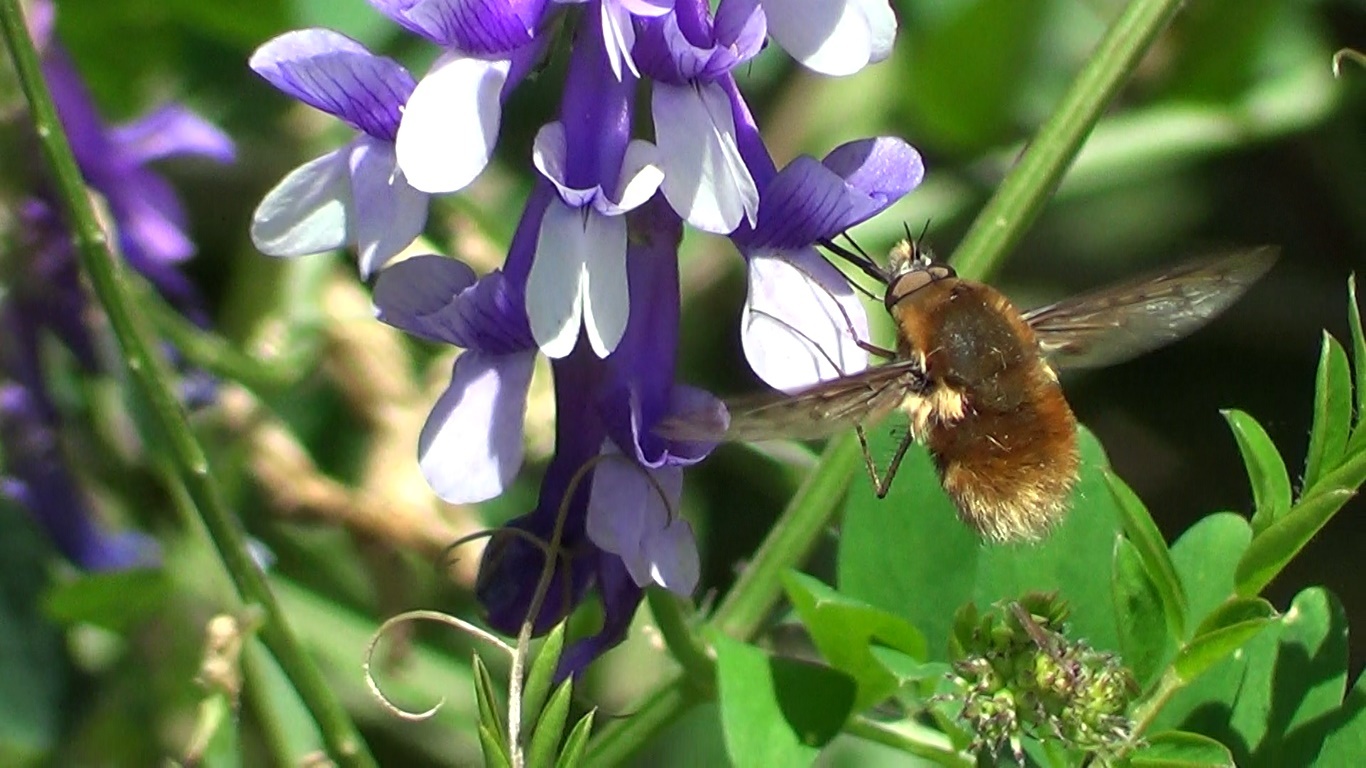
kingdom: Animalia
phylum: Arthropoda
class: Insecta
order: Diptera
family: Bombyliidae
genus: Bombylius
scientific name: Bombylius medius
